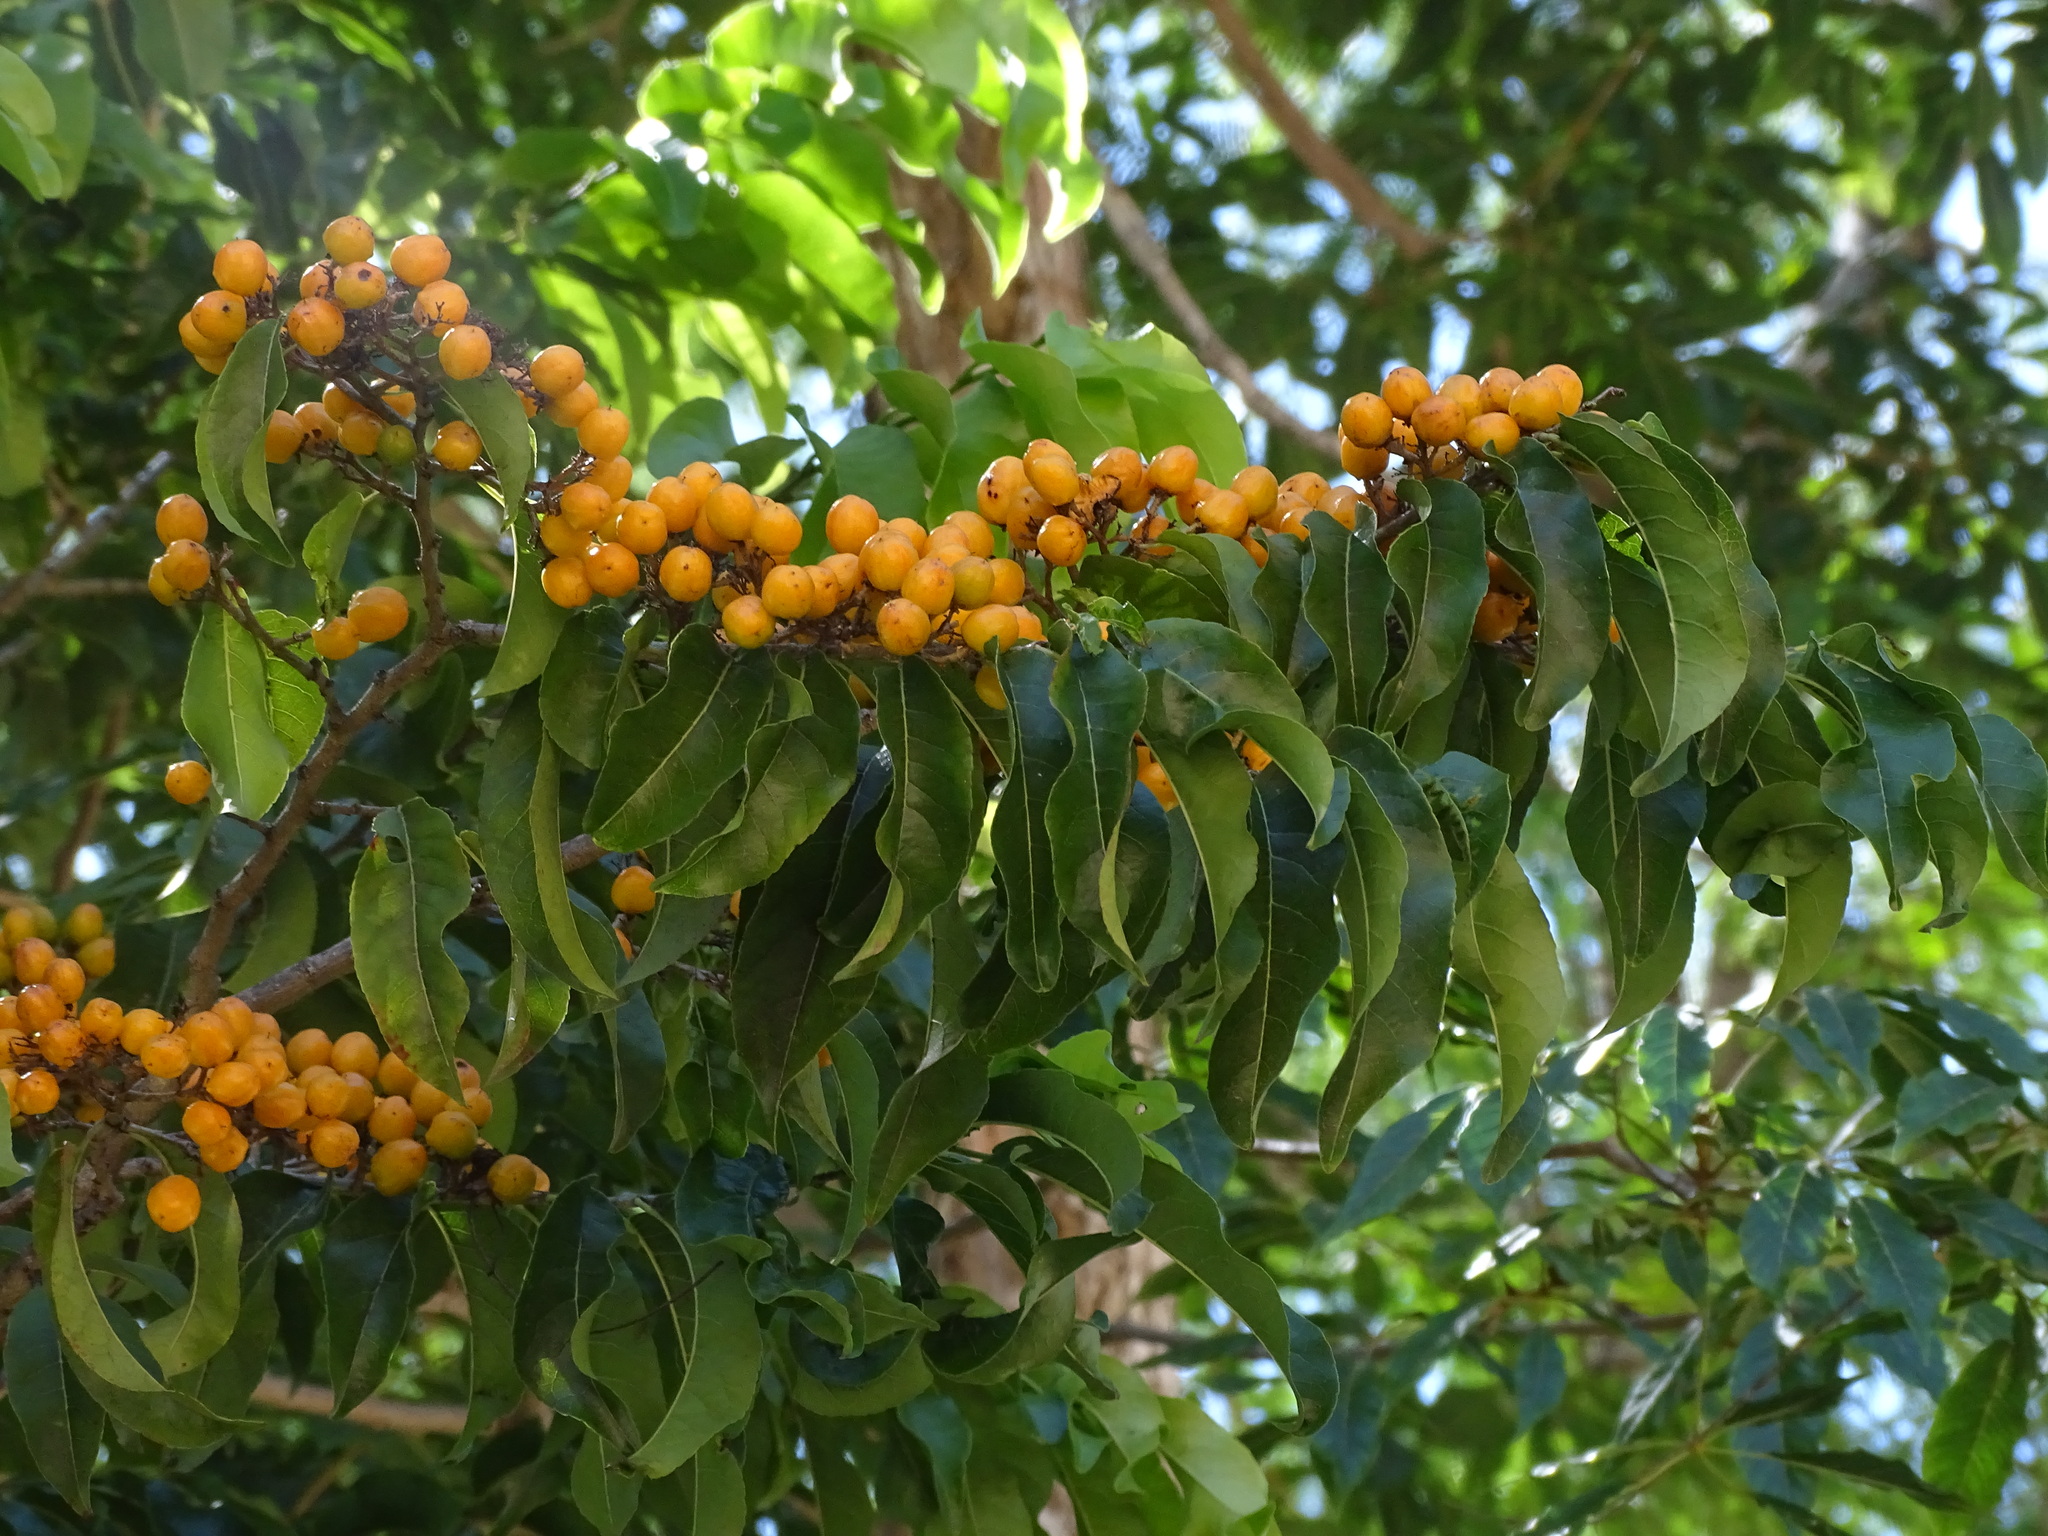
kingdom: Plantae
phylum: Tracheophyta
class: Magnoliopsida
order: Malpighiales
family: Malpighiaceae
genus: Bunchosia
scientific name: Bunchosia canescens
